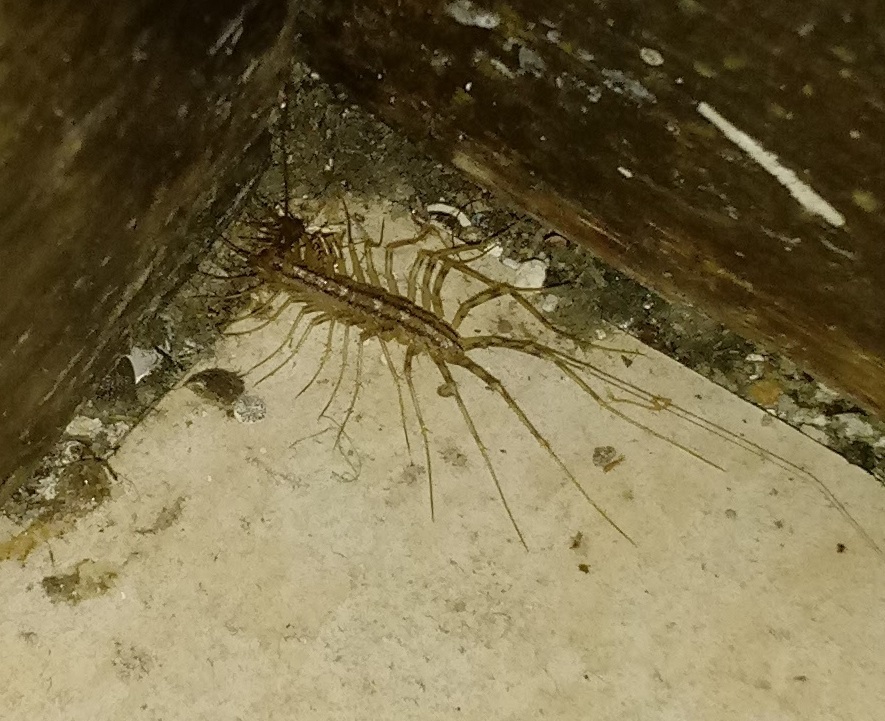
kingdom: Animalia
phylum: Arthropoda
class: Chilopoda
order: Scutigeromorpha
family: Scutigeridae
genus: Scutigera
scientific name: Scutigera coleoptrata
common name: House centipede
